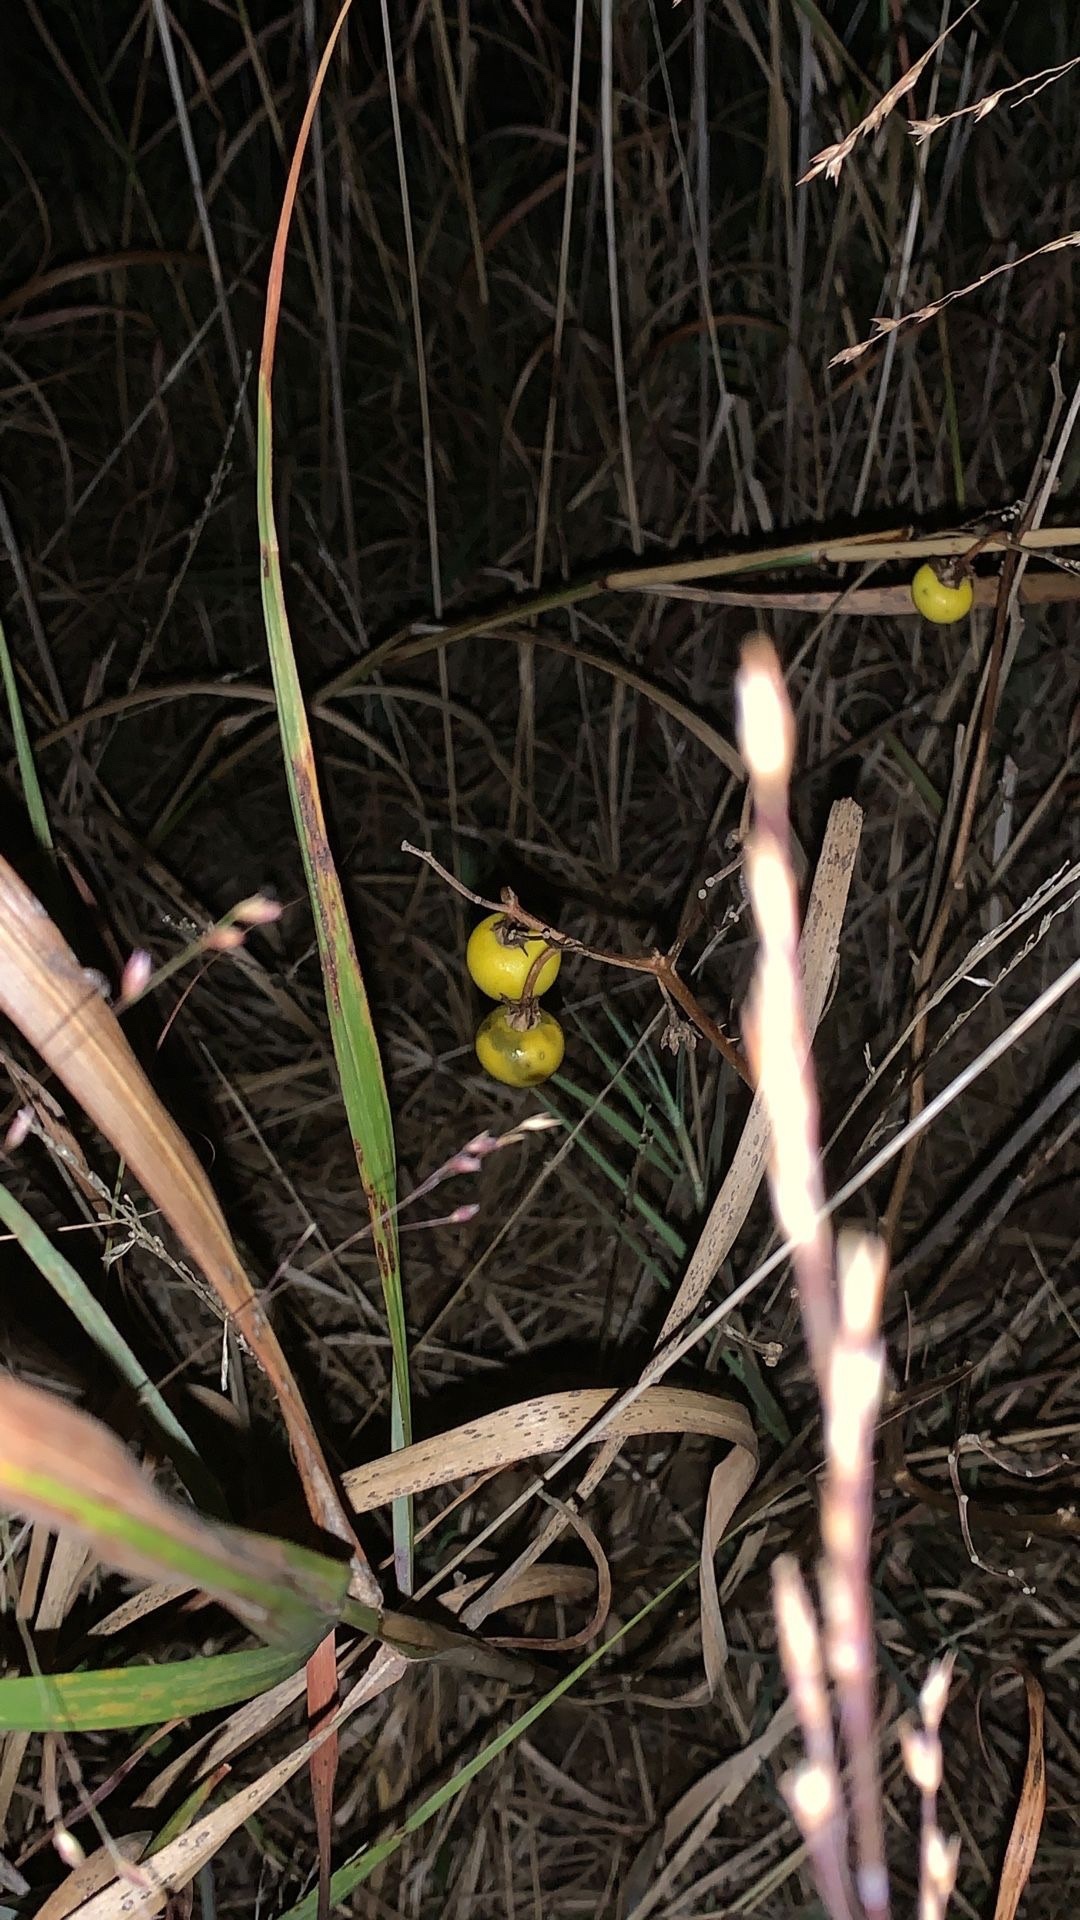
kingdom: Plantae
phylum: Tracheophyta
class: Magnoliopsida
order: Solanales
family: Solanaceae
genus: Solanum
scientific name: Solanum carolinense
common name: Horse-nettle
